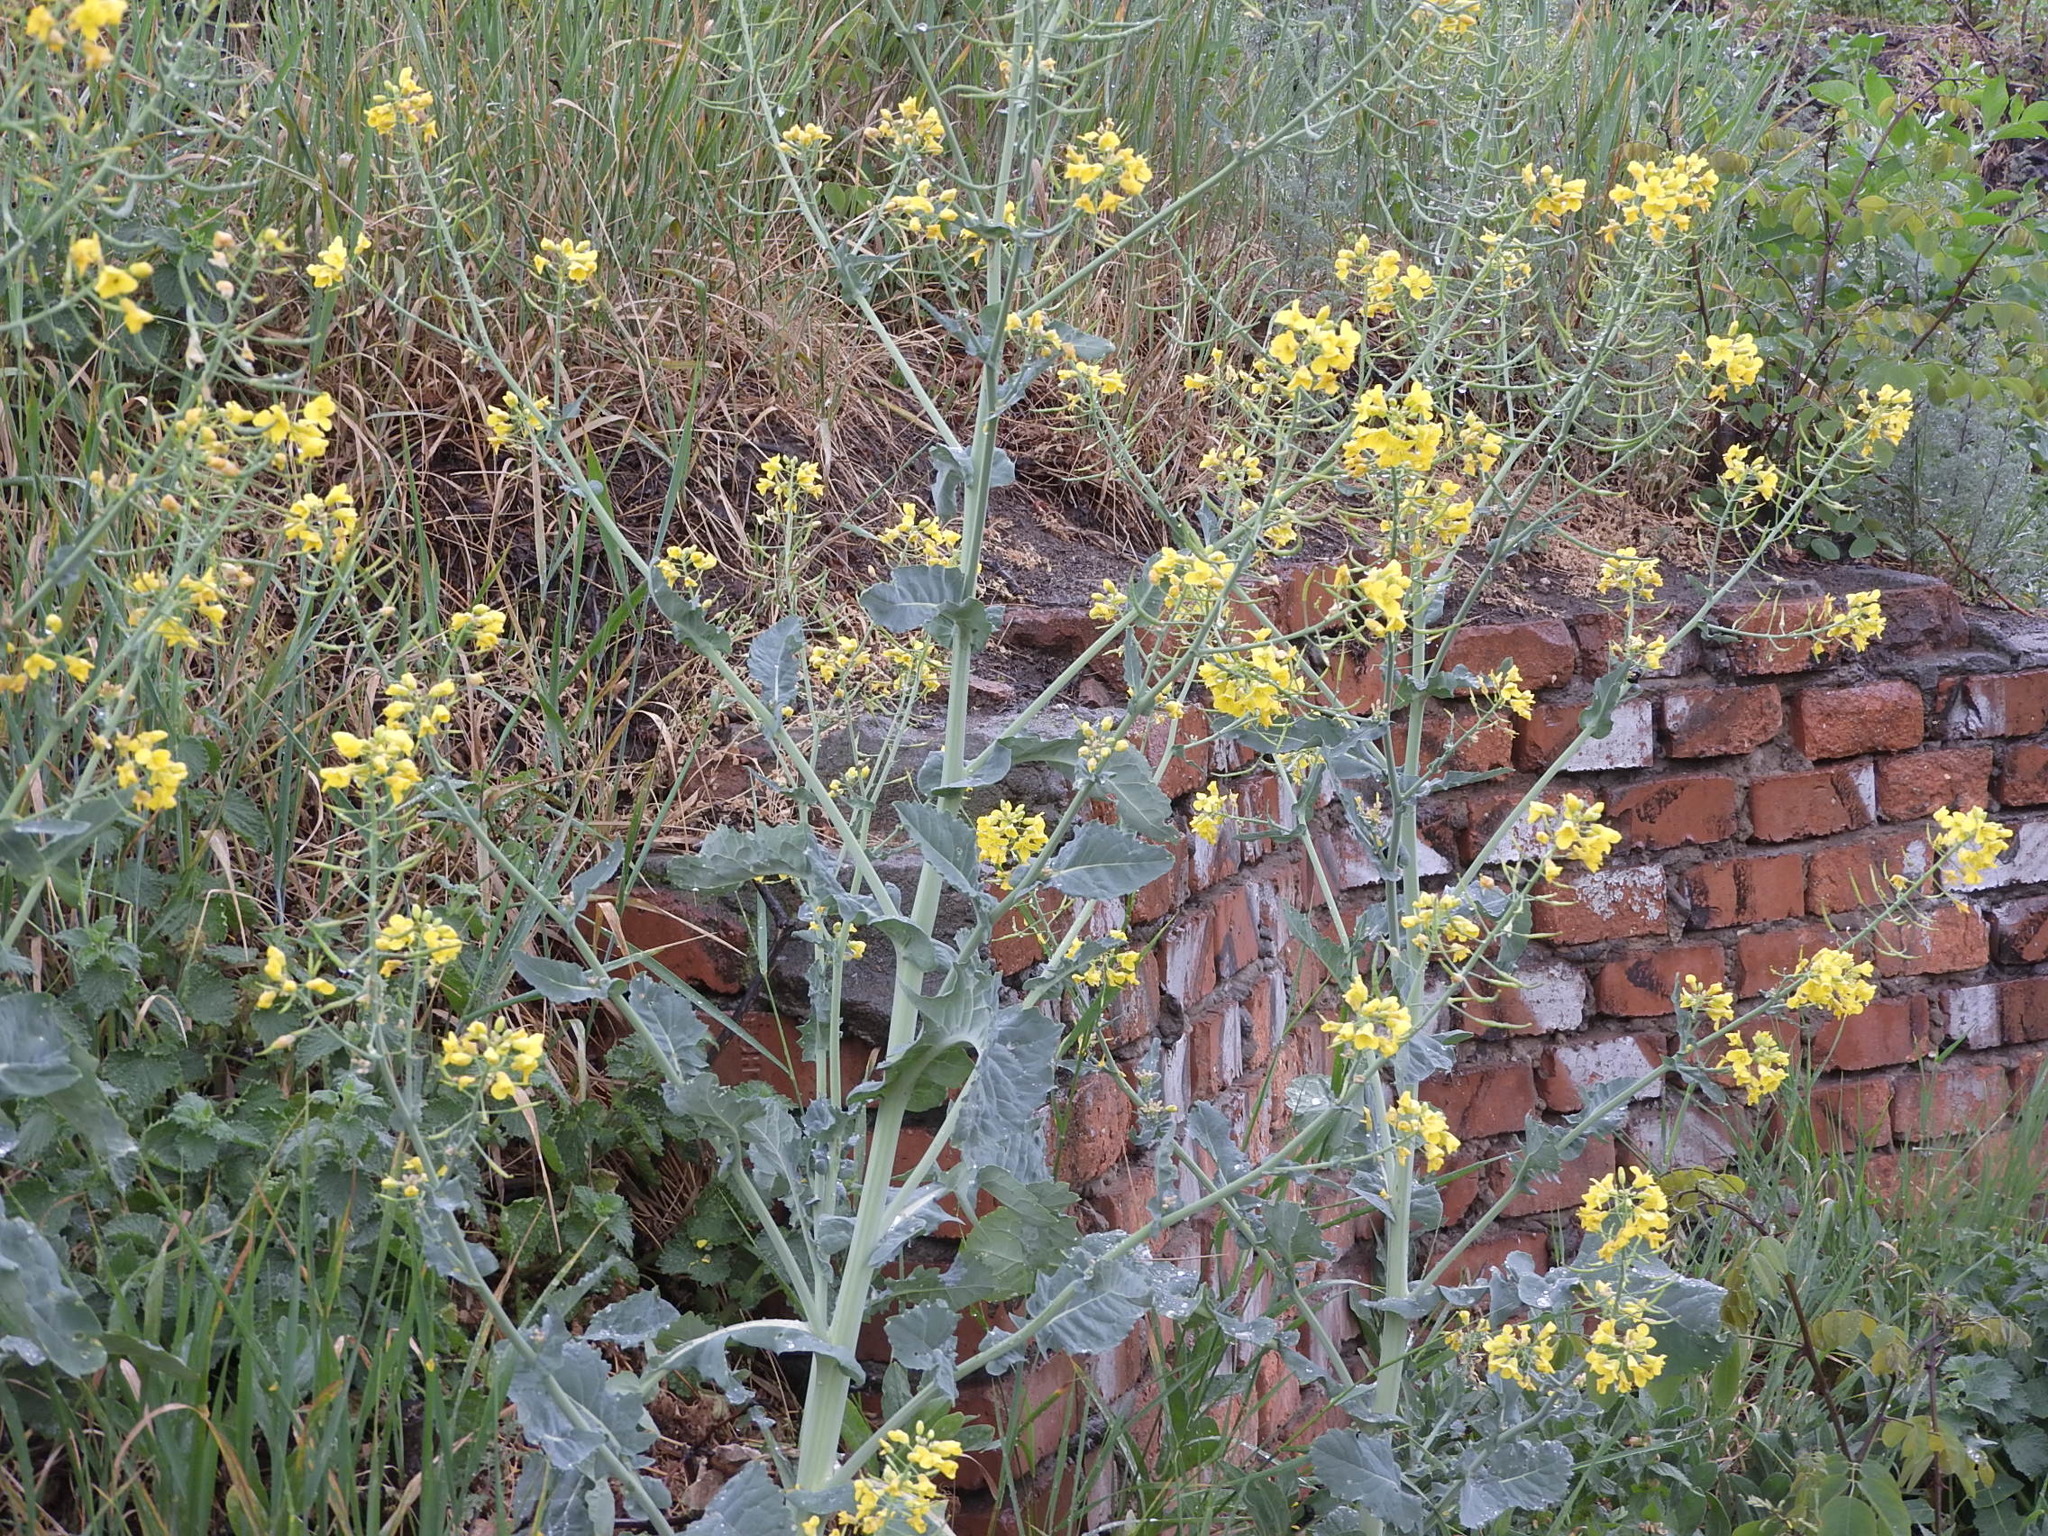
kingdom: Plantae
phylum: Tracheophyta
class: Magnoliopsida
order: Brassicales
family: Brassicaceae
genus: Brassica
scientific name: Brassica napus
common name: Rape
